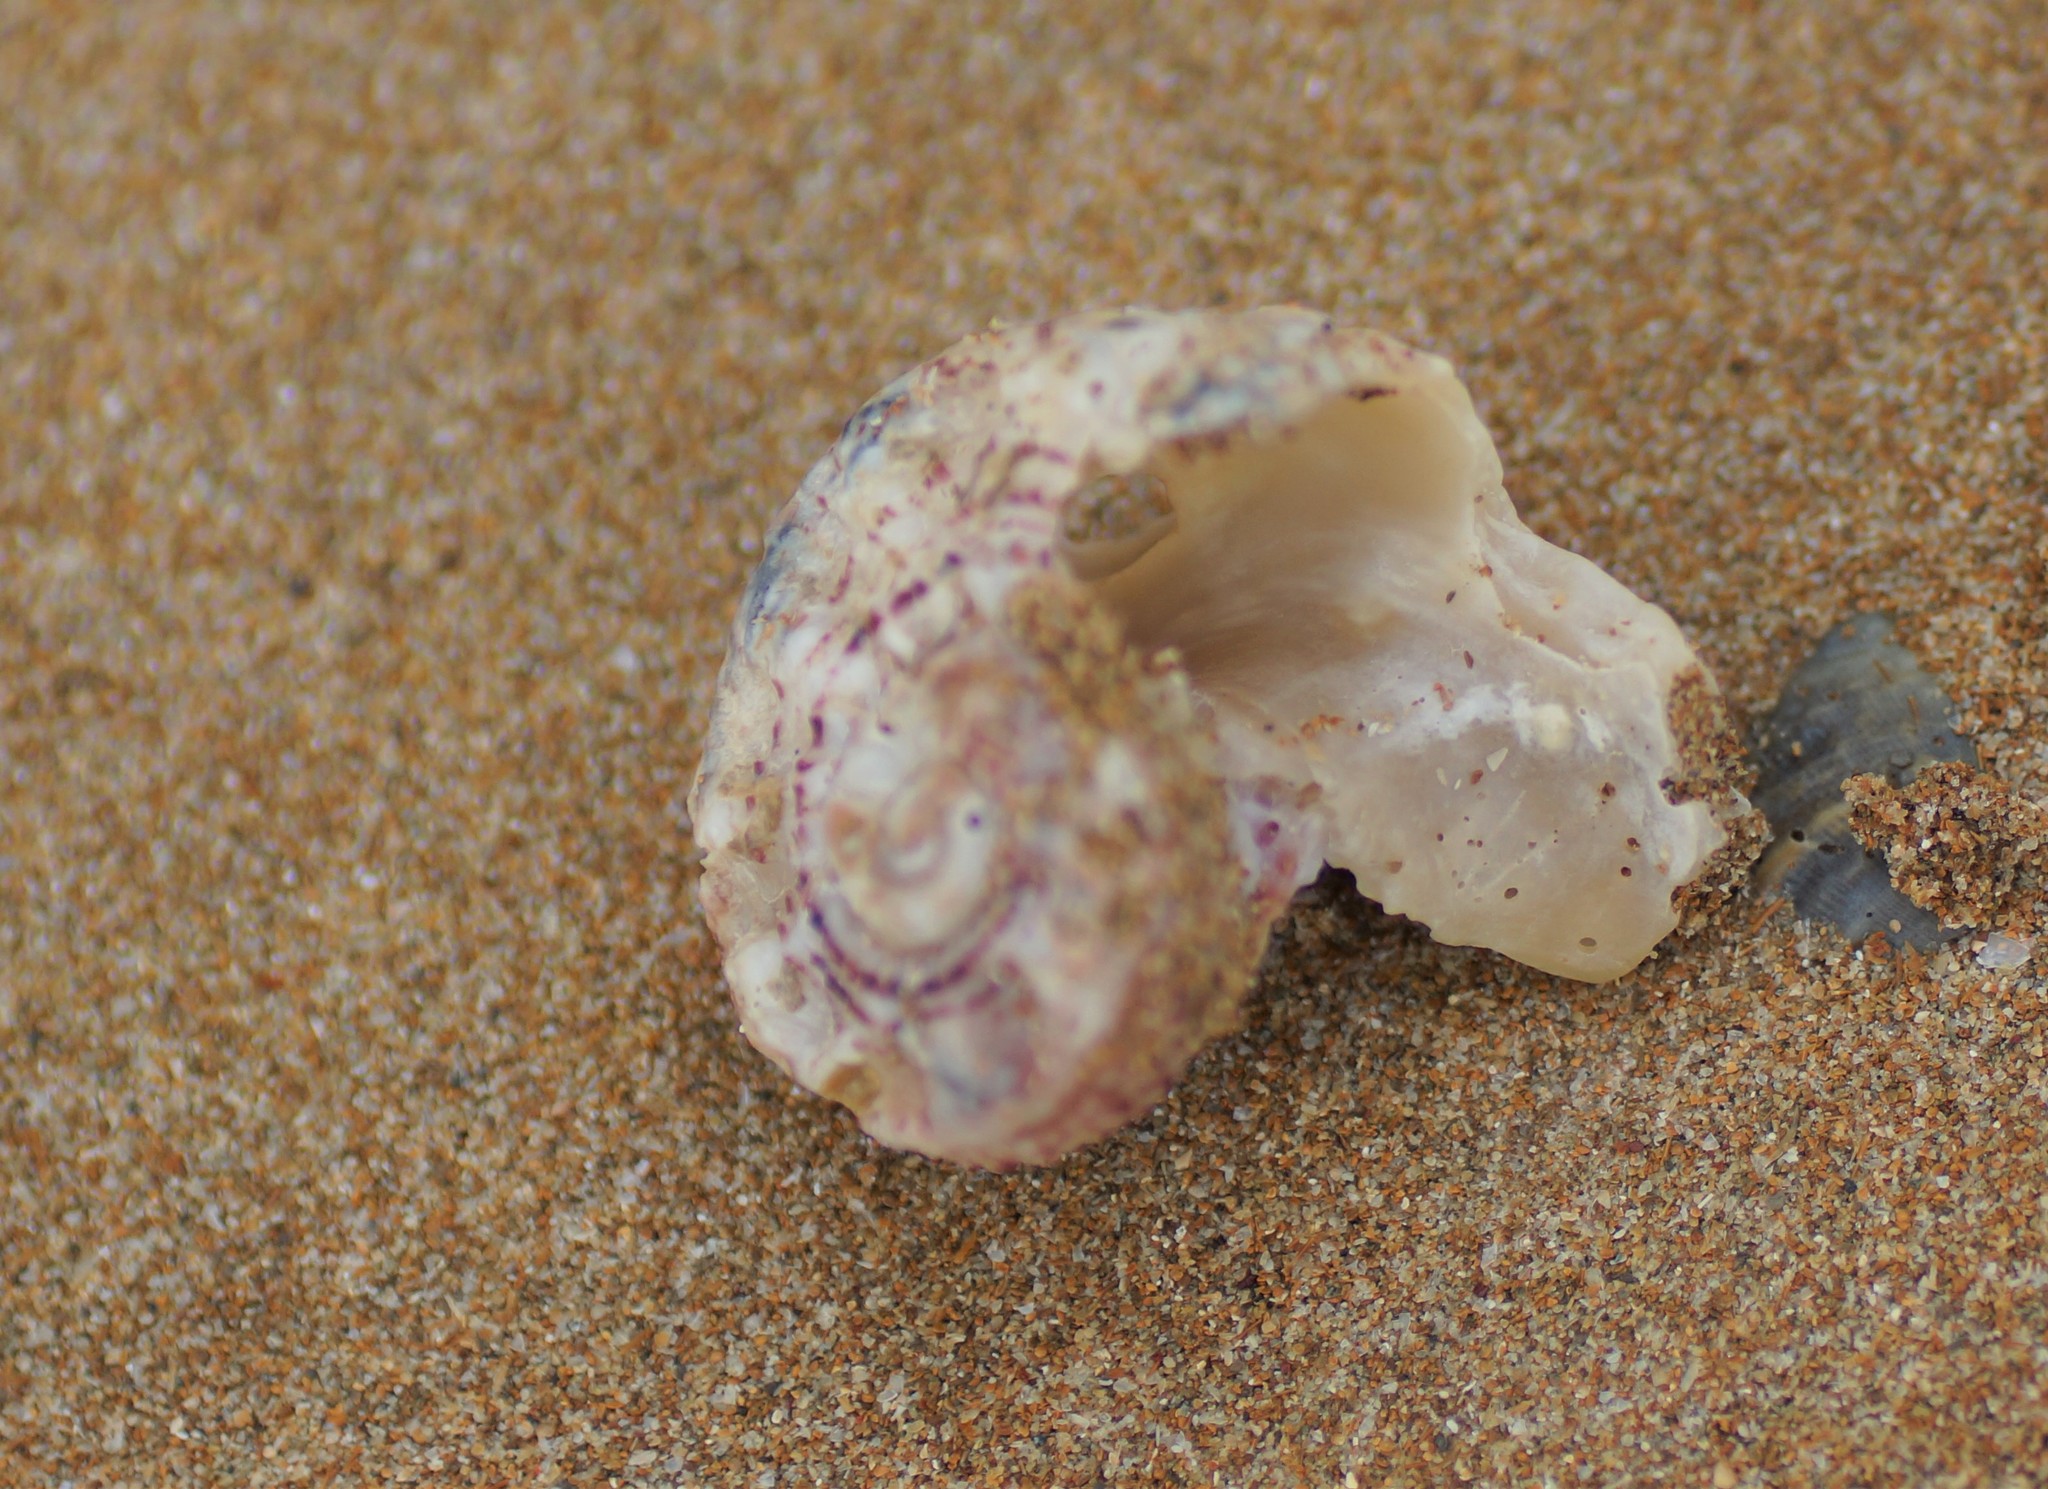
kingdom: Animalia
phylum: Mollusca
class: Gastropoda
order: Trochida
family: Angariidae
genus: Angaria
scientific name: Angaria delphinus
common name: Dolphin shell
